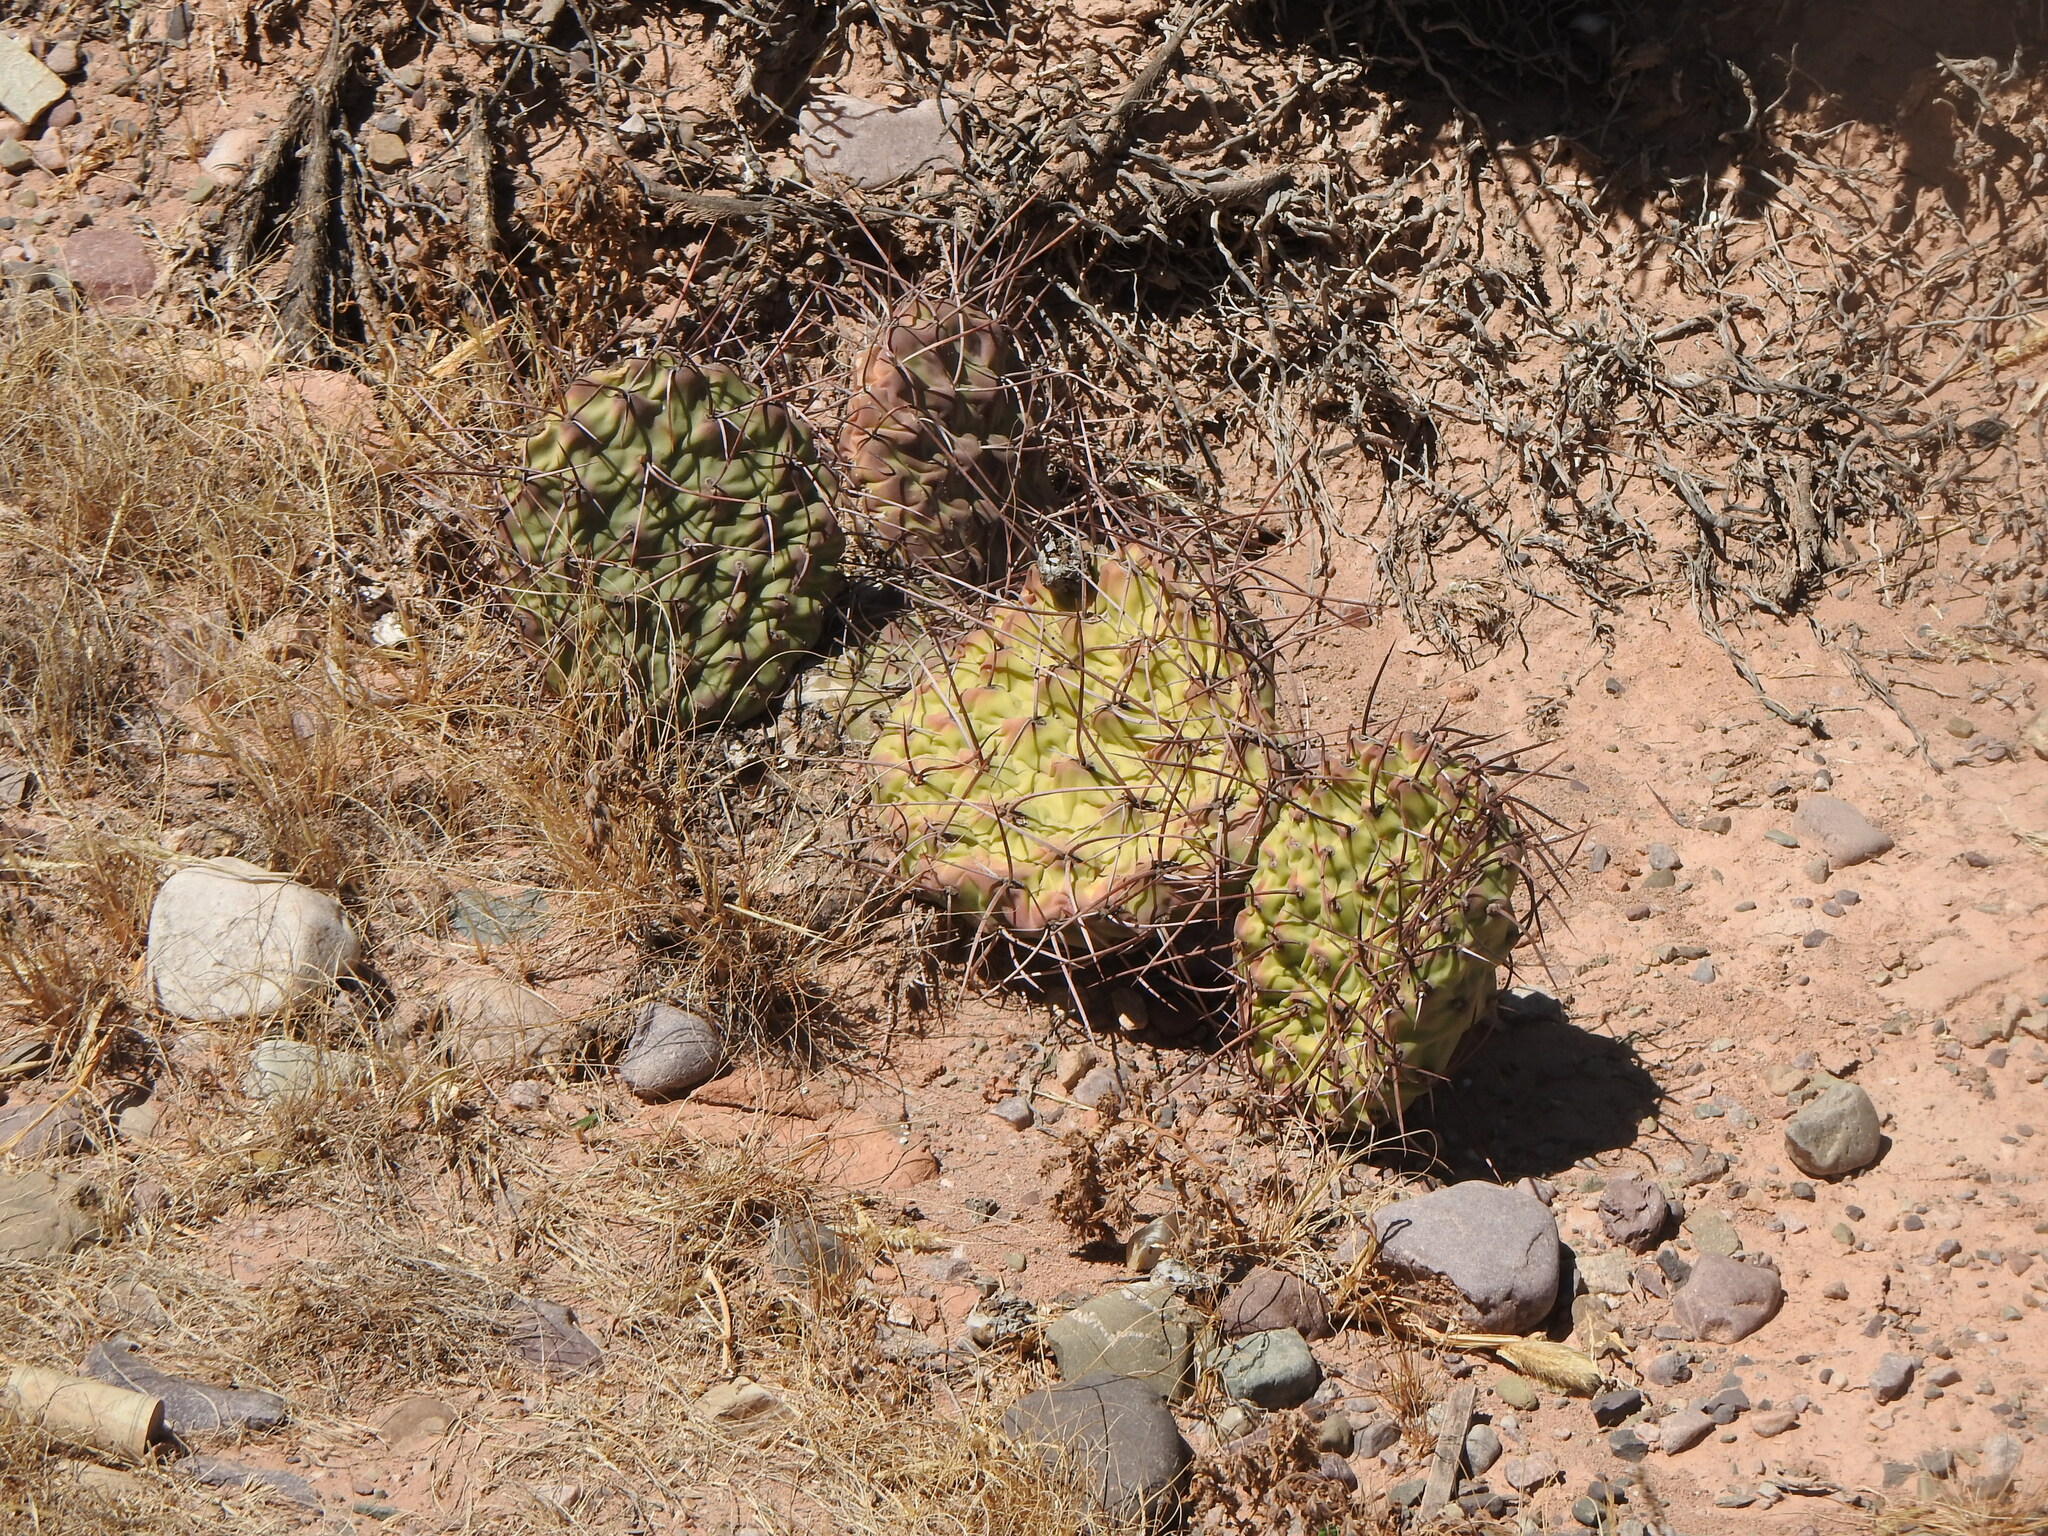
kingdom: Plantae
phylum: Tracheophyta
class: Magnoliopsida
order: Caryophyllales
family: Cactaceae
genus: Opuntia
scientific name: Opuntia sulphurea
